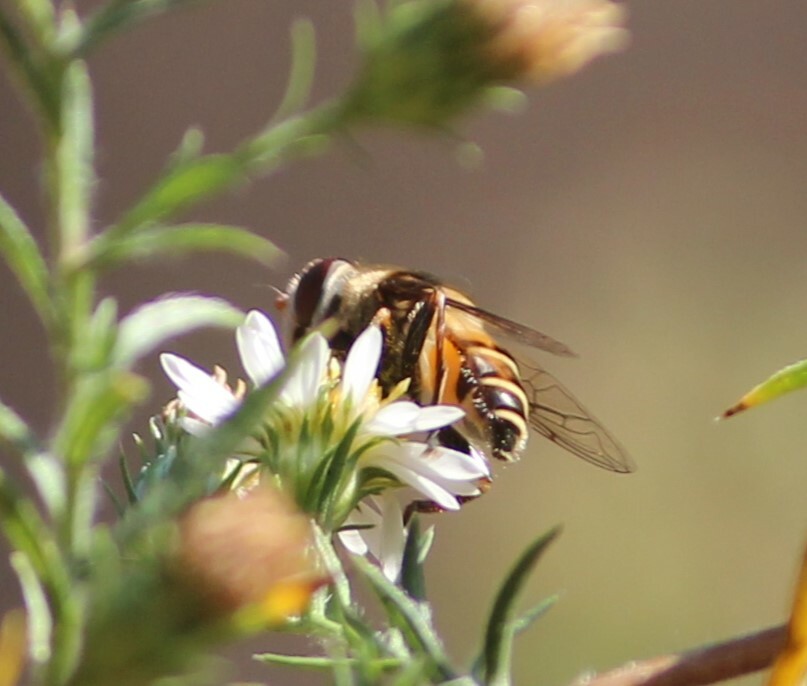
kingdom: Animalia
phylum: Arthropoda
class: Insecta
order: Diptera
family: Syrphidae
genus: Palpada
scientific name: Palpada pusilla
